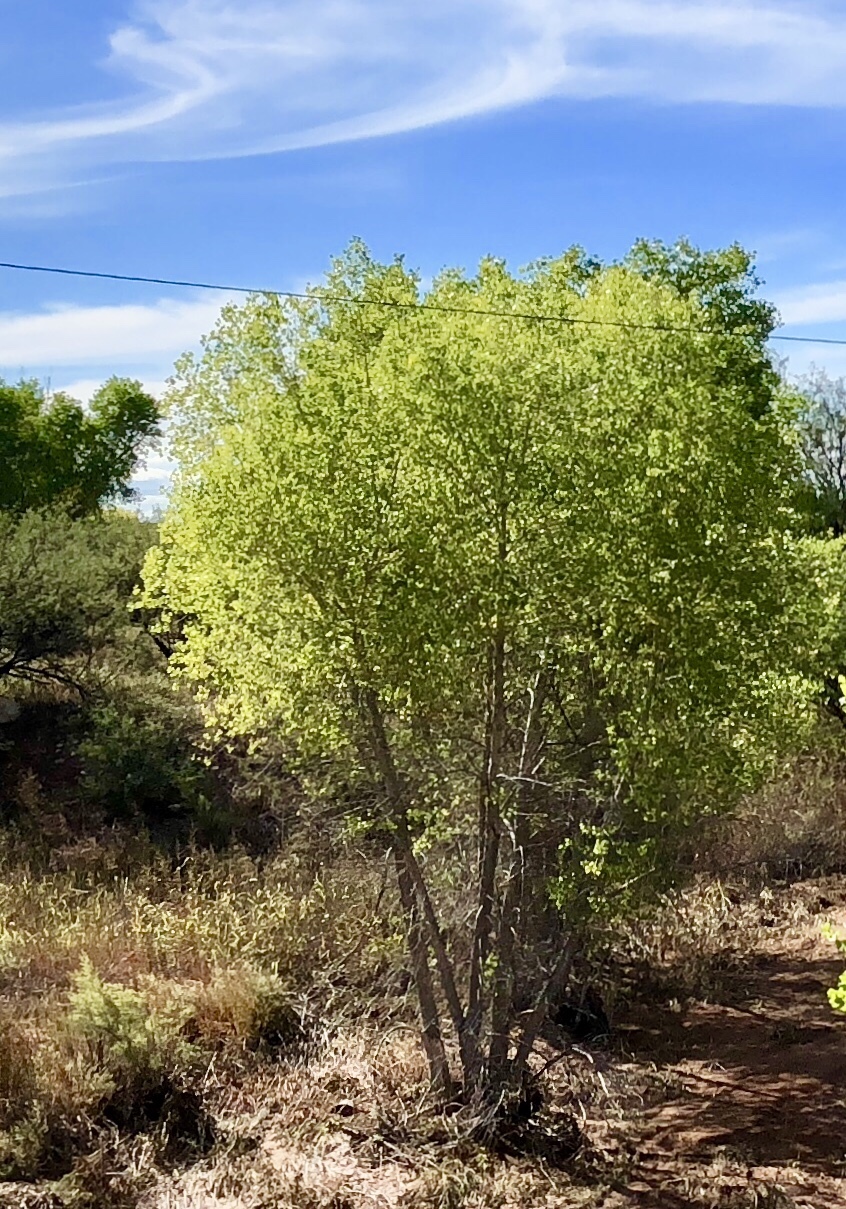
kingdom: Plantae
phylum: Tracheophyta
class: Magnoliopsida
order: Malpighiales
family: Salicaceae
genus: Populus
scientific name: Populus fremontii
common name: Fremont's cottonwood
